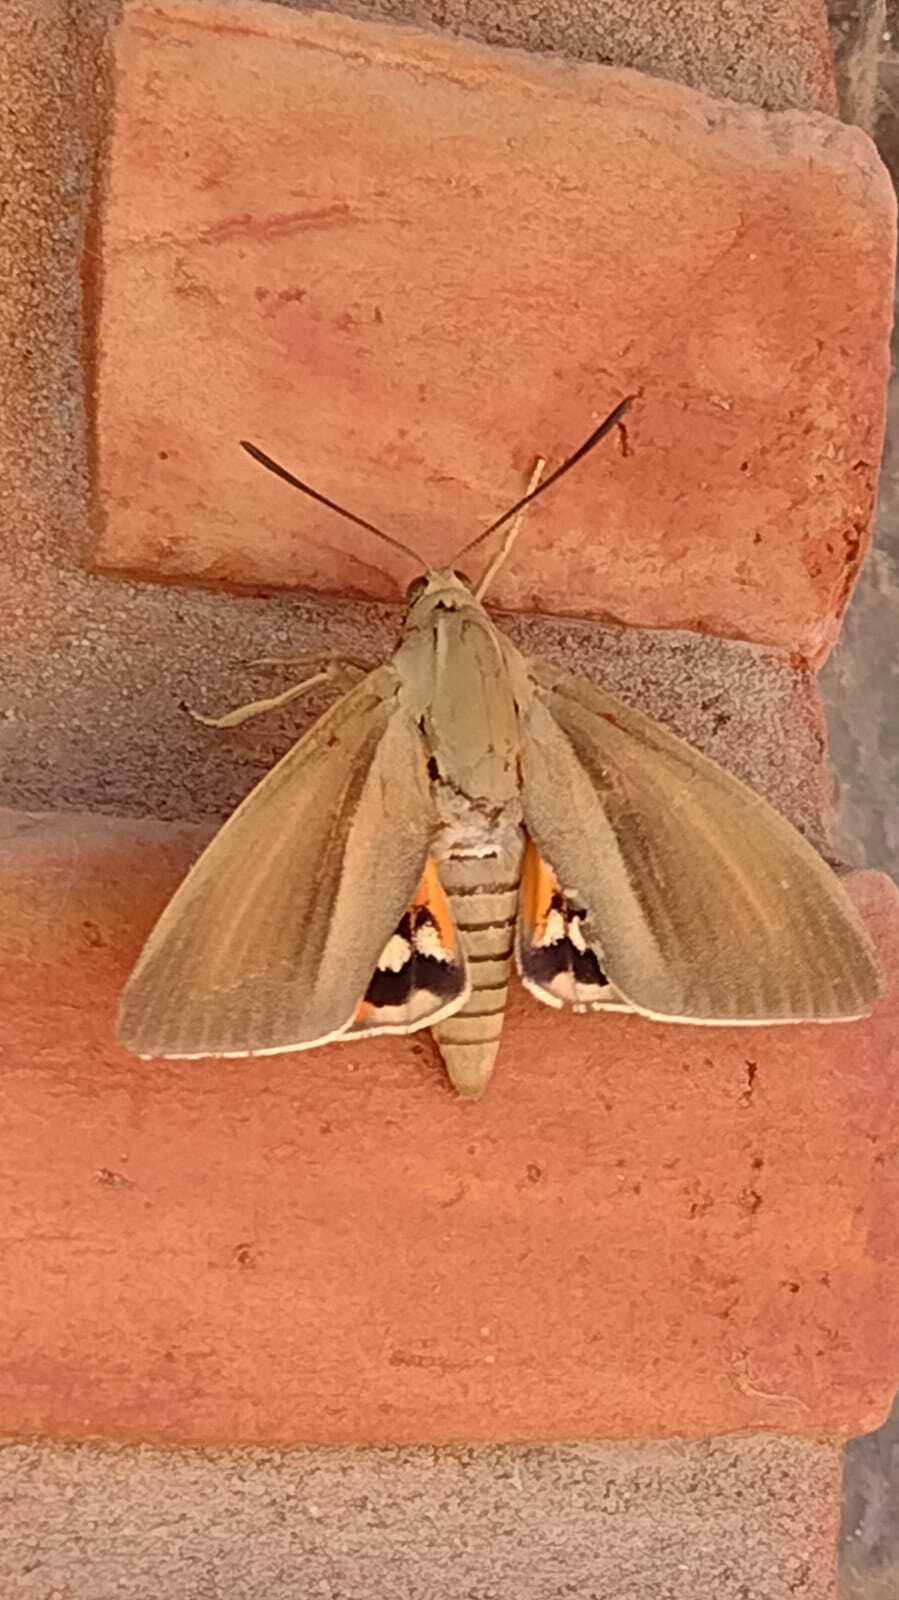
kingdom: Animalia
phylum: Arthropoda
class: Insecta
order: Lepidoptera
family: Castniidae
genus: Paysandisia
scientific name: Paysandisia archon
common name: Palm moth
